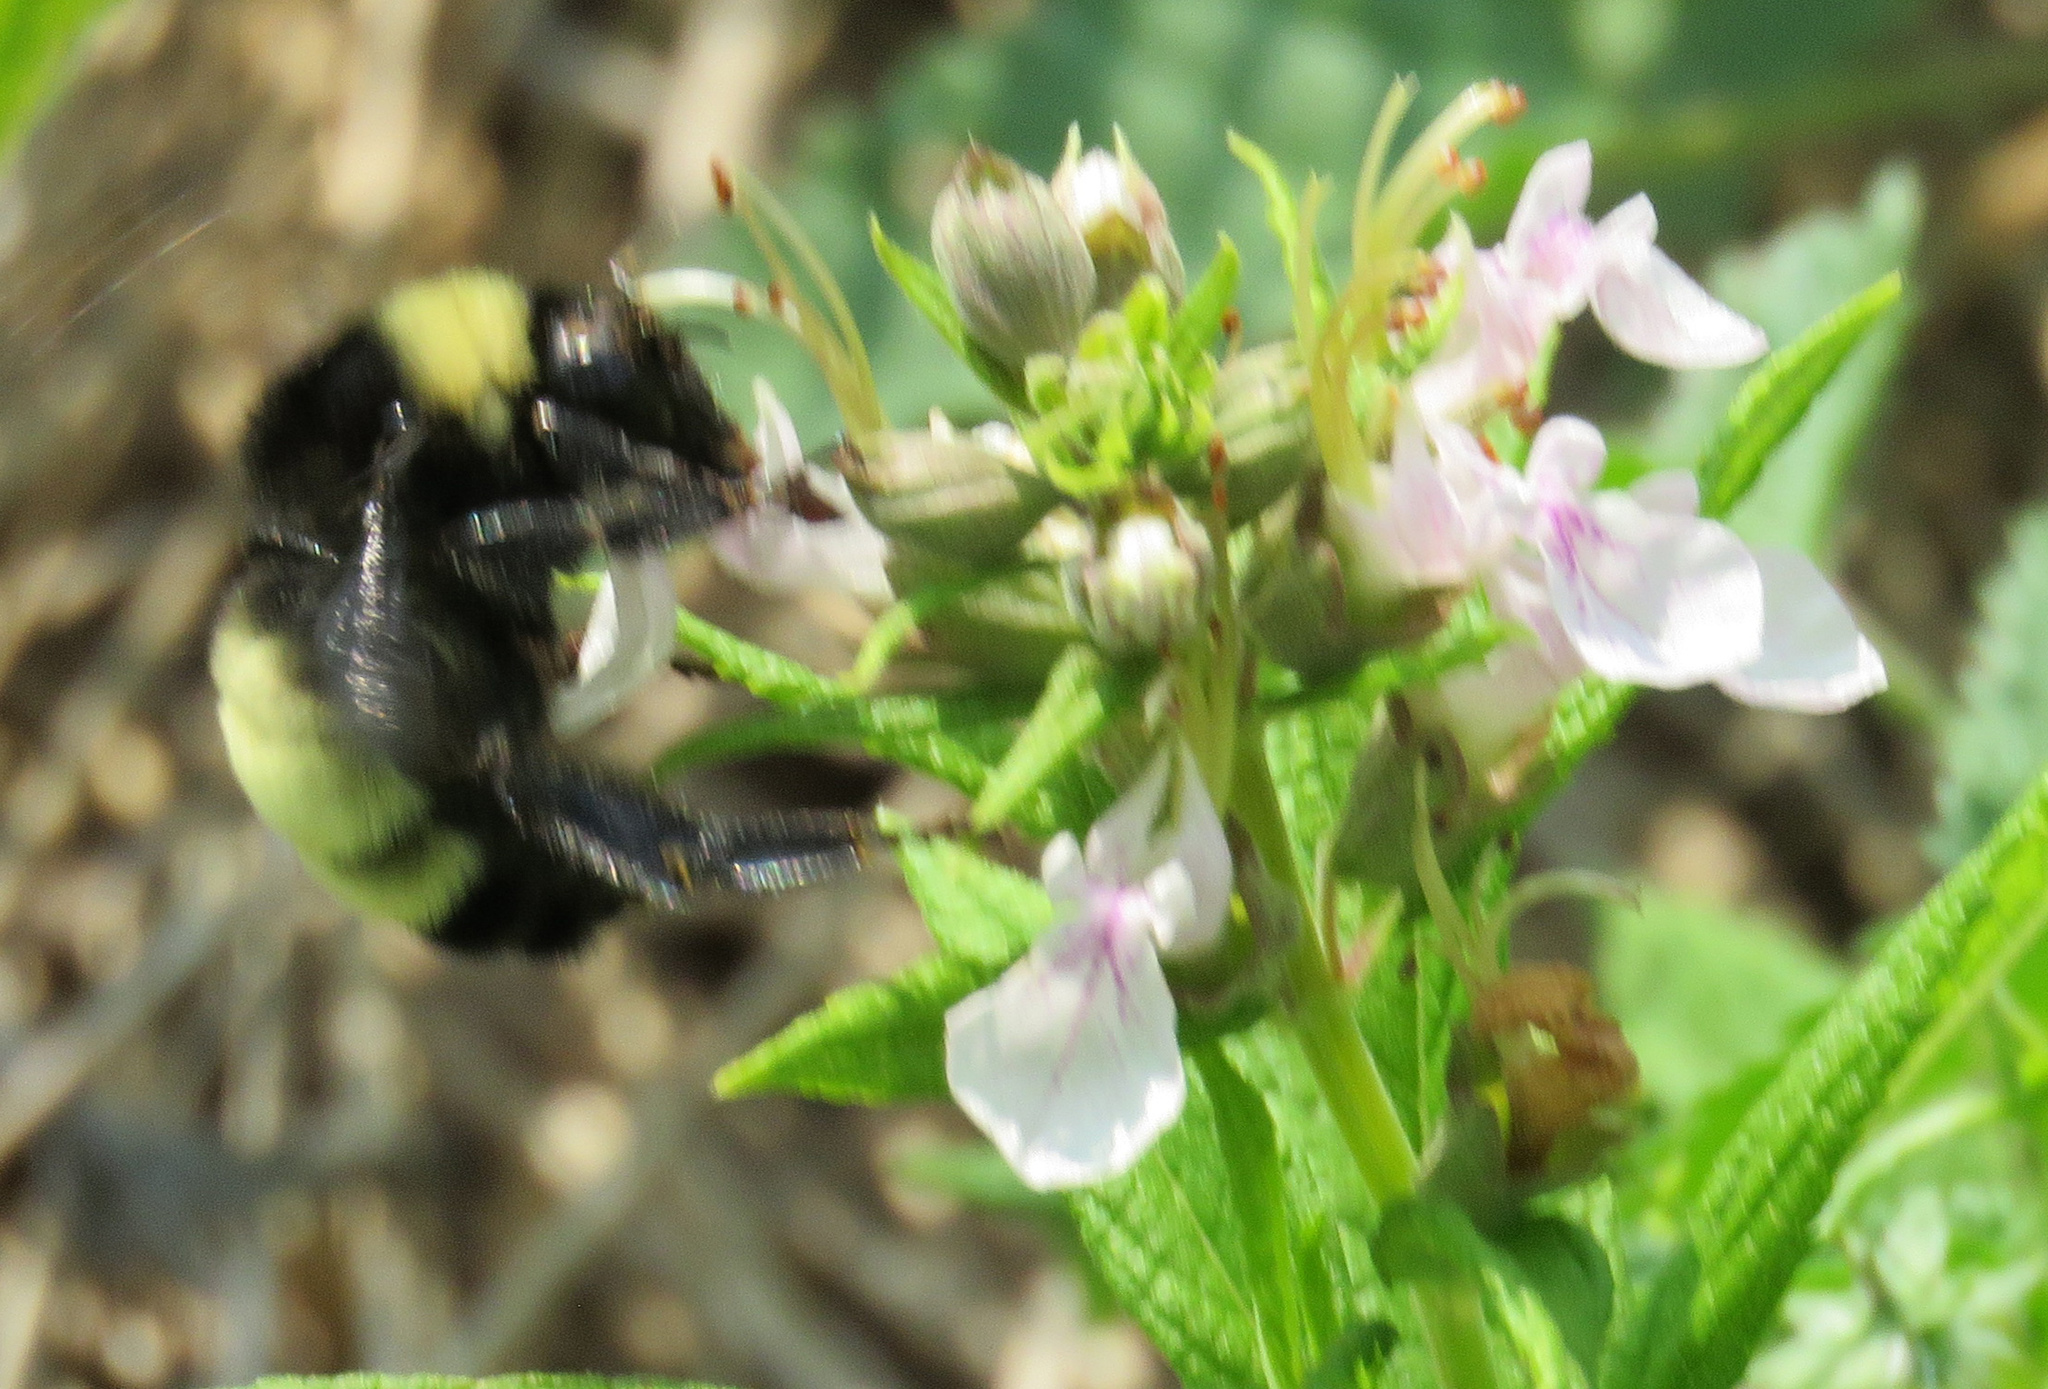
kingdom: Animalia
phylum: Arthropoda
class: Insecta
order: Hymenoptera
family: Apidae
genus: Bombus
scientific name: Bombus pensylvanicus
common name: Bumble bee
